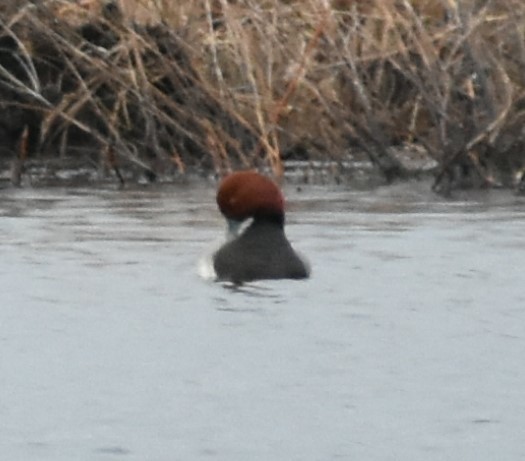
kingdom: Animalia
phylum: Chordata
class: Aves
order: Anseriformes
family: Anatidae
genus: Aythya
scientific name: Aythya americana
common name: Redhead
